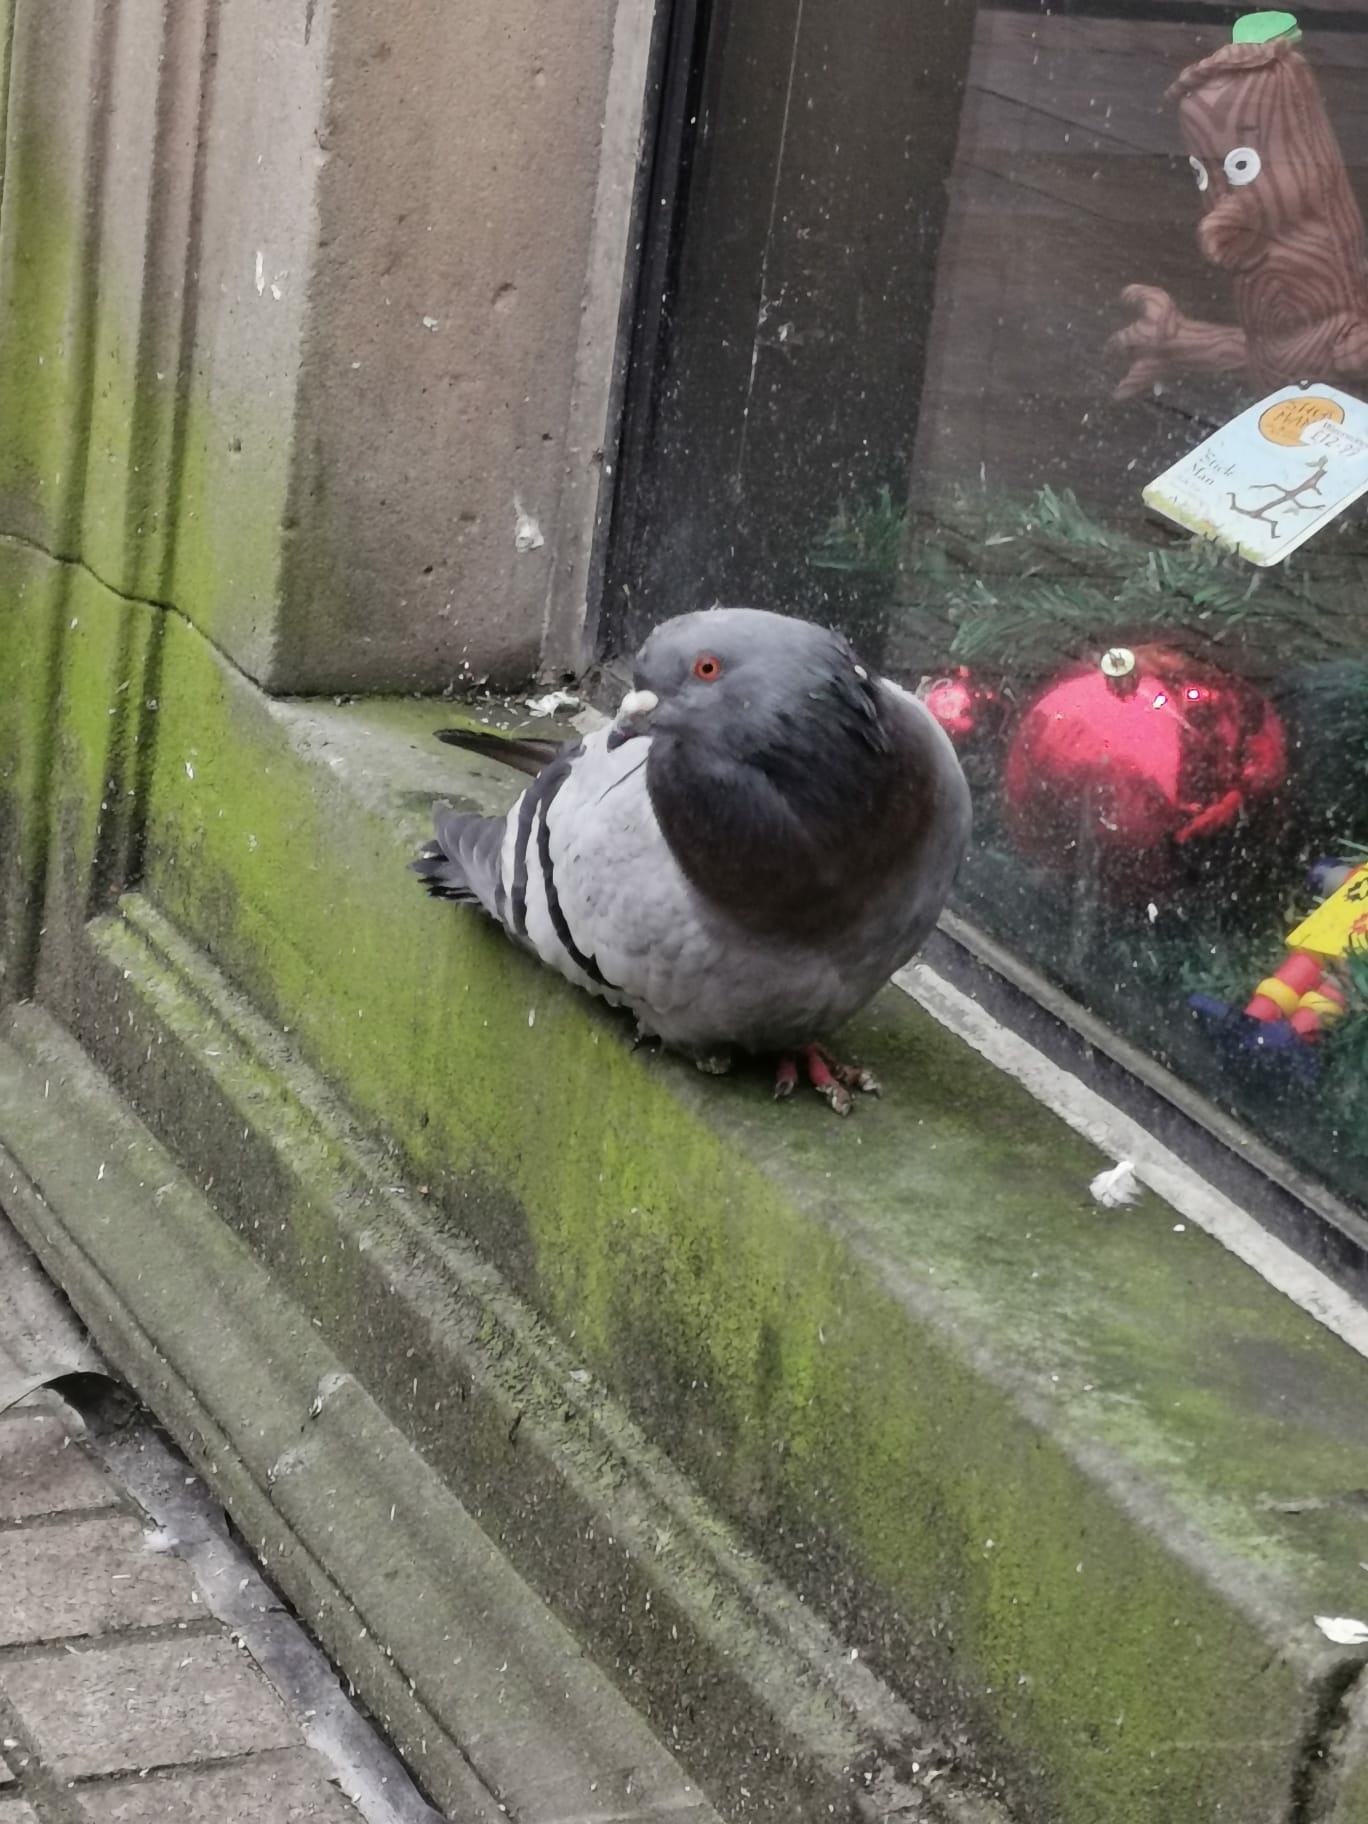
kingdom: Animalia
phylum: Chordata
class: Aves
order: Columbiformes
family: Columbidae
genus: Columba
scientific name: Columba livia
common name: Rock pigeon
